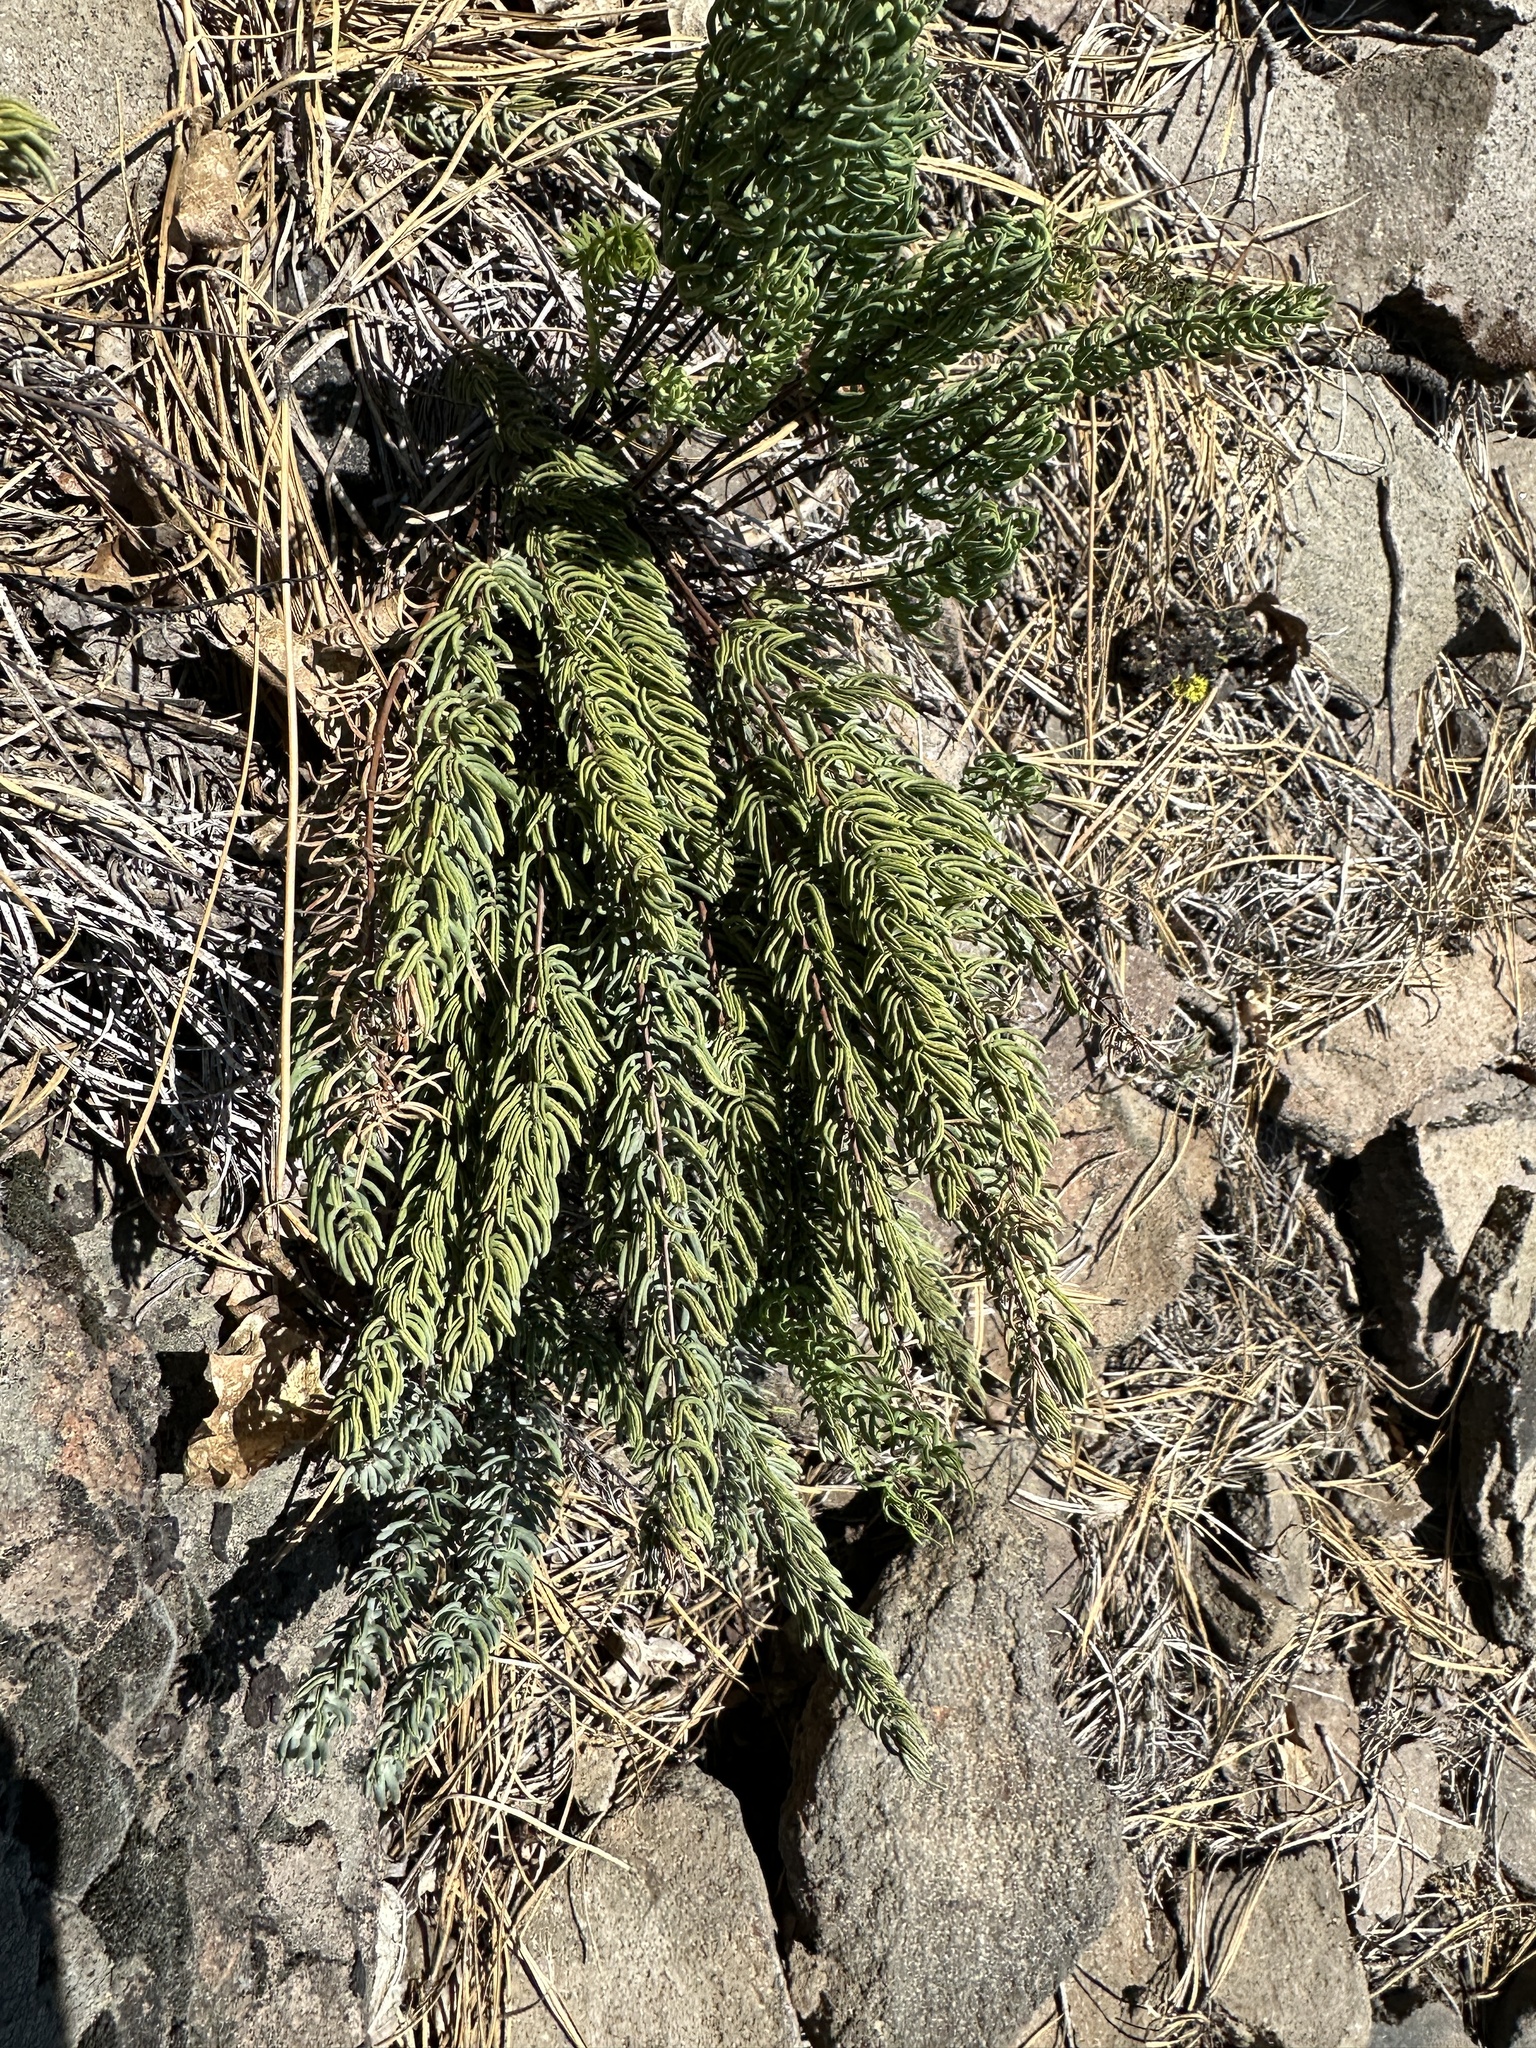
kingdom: Plantae
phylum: Tracheophyta
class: Polypodiopsida
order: Polypodiales
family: Pteridaceae
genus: Pellaea
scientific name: Pellaea brachyptera
